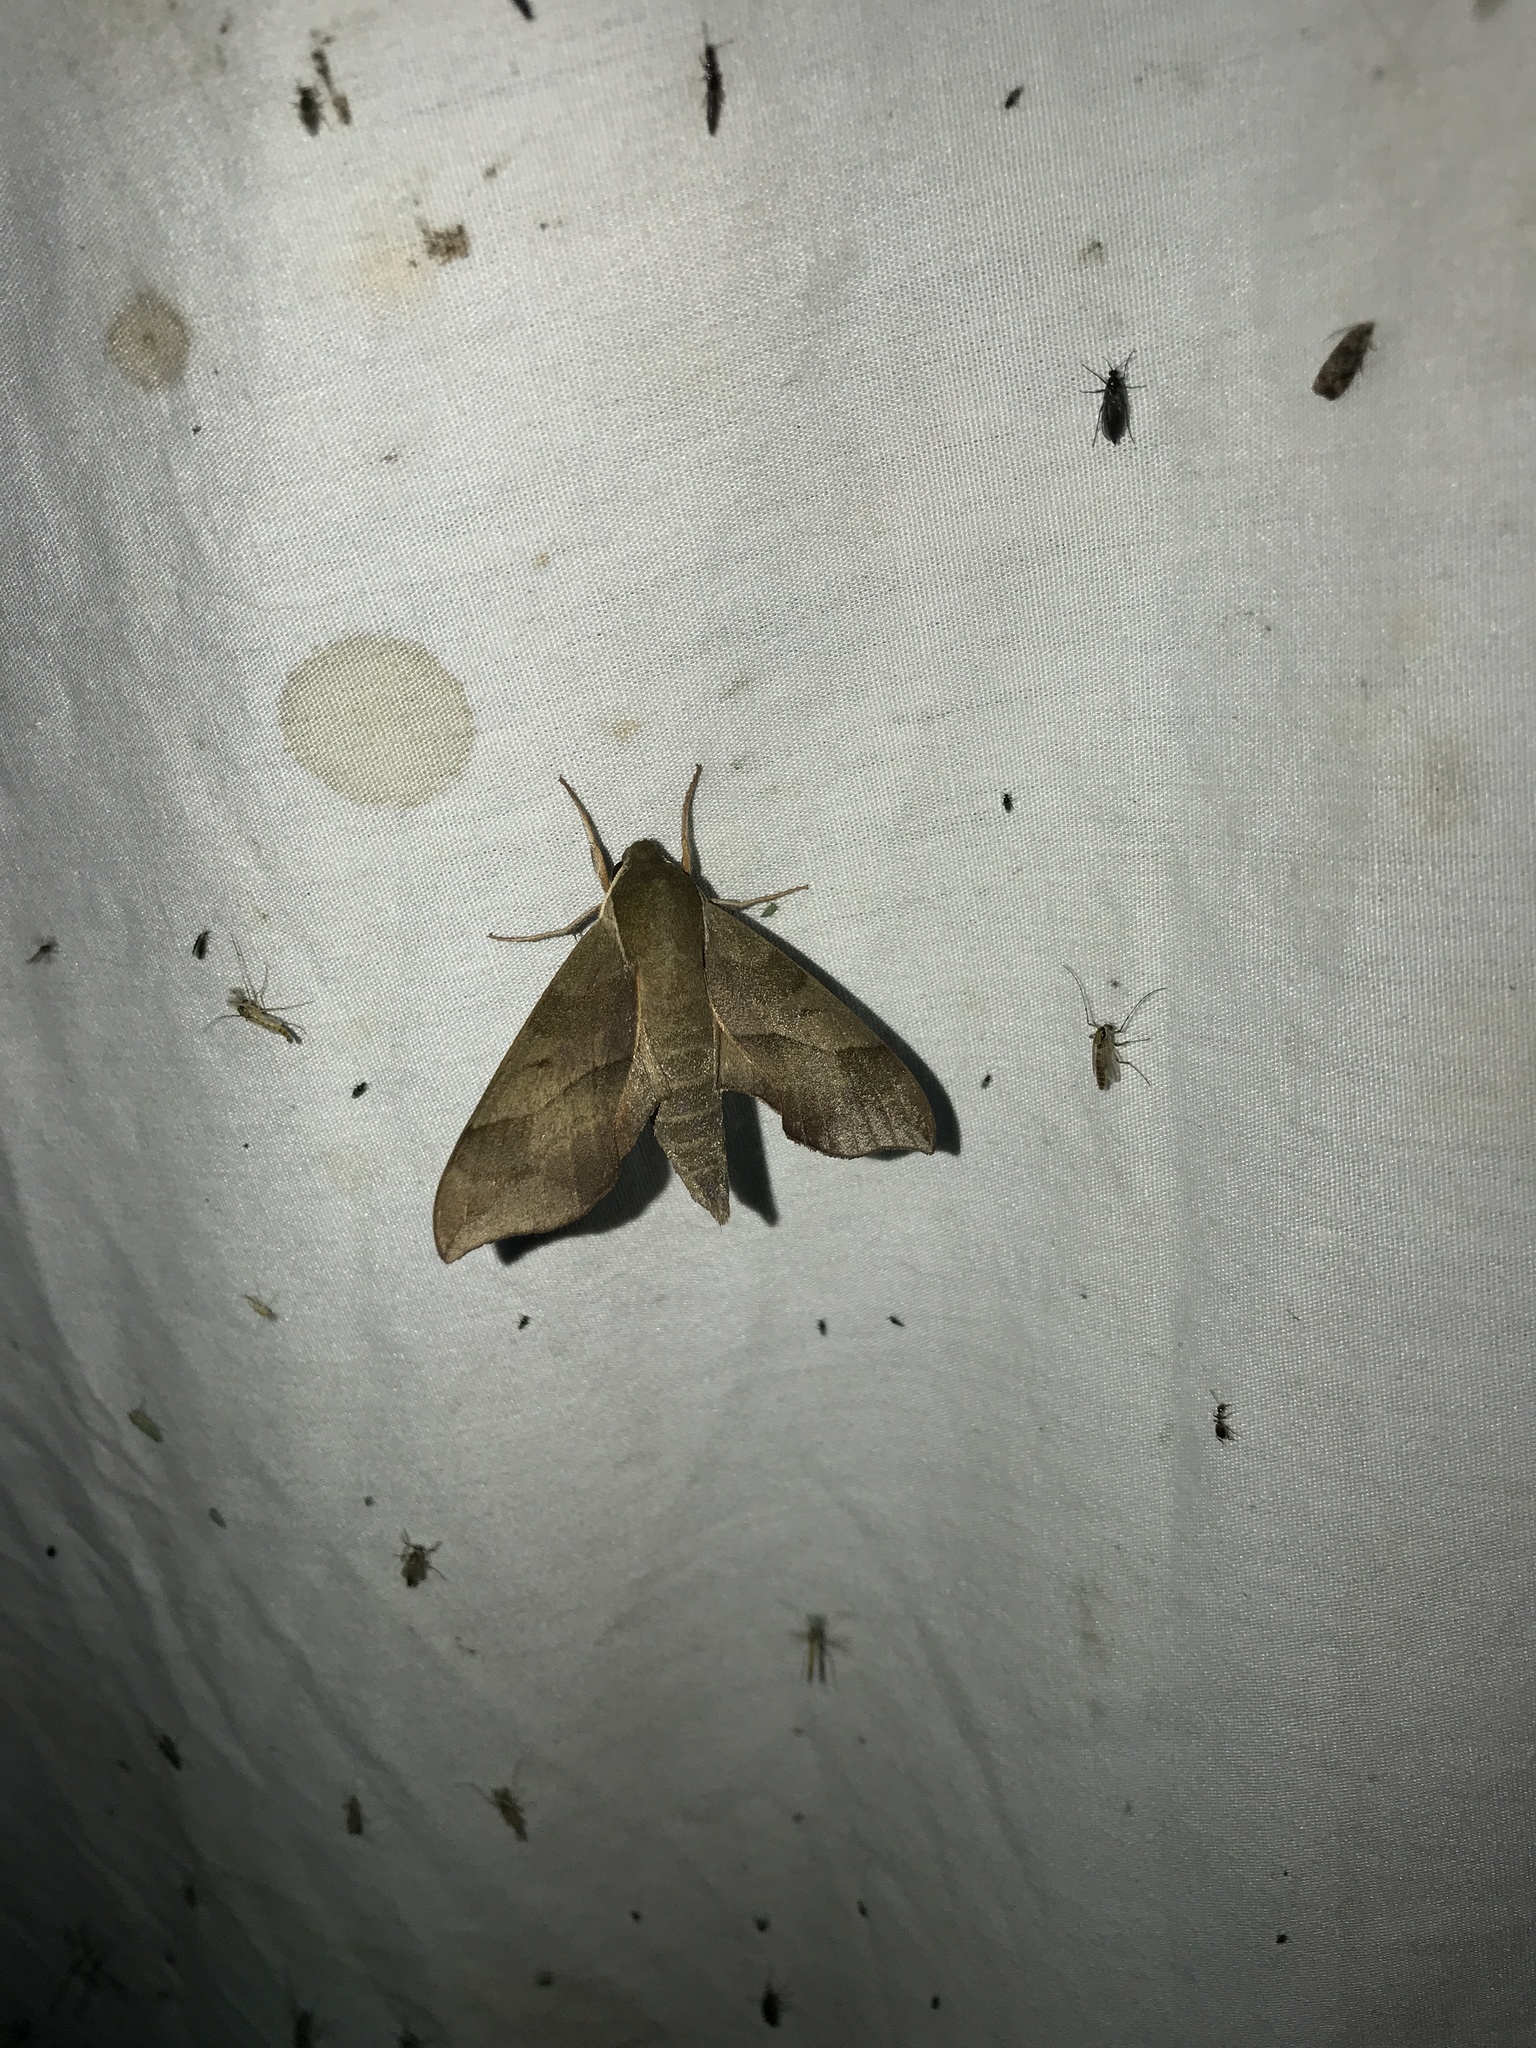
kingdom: Animalia
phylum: Arthropoda
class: Insecta
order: Lepidoptera
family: Sphingidae
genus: Darapsa
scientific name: Darapsa myron
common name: Hog sphinx
